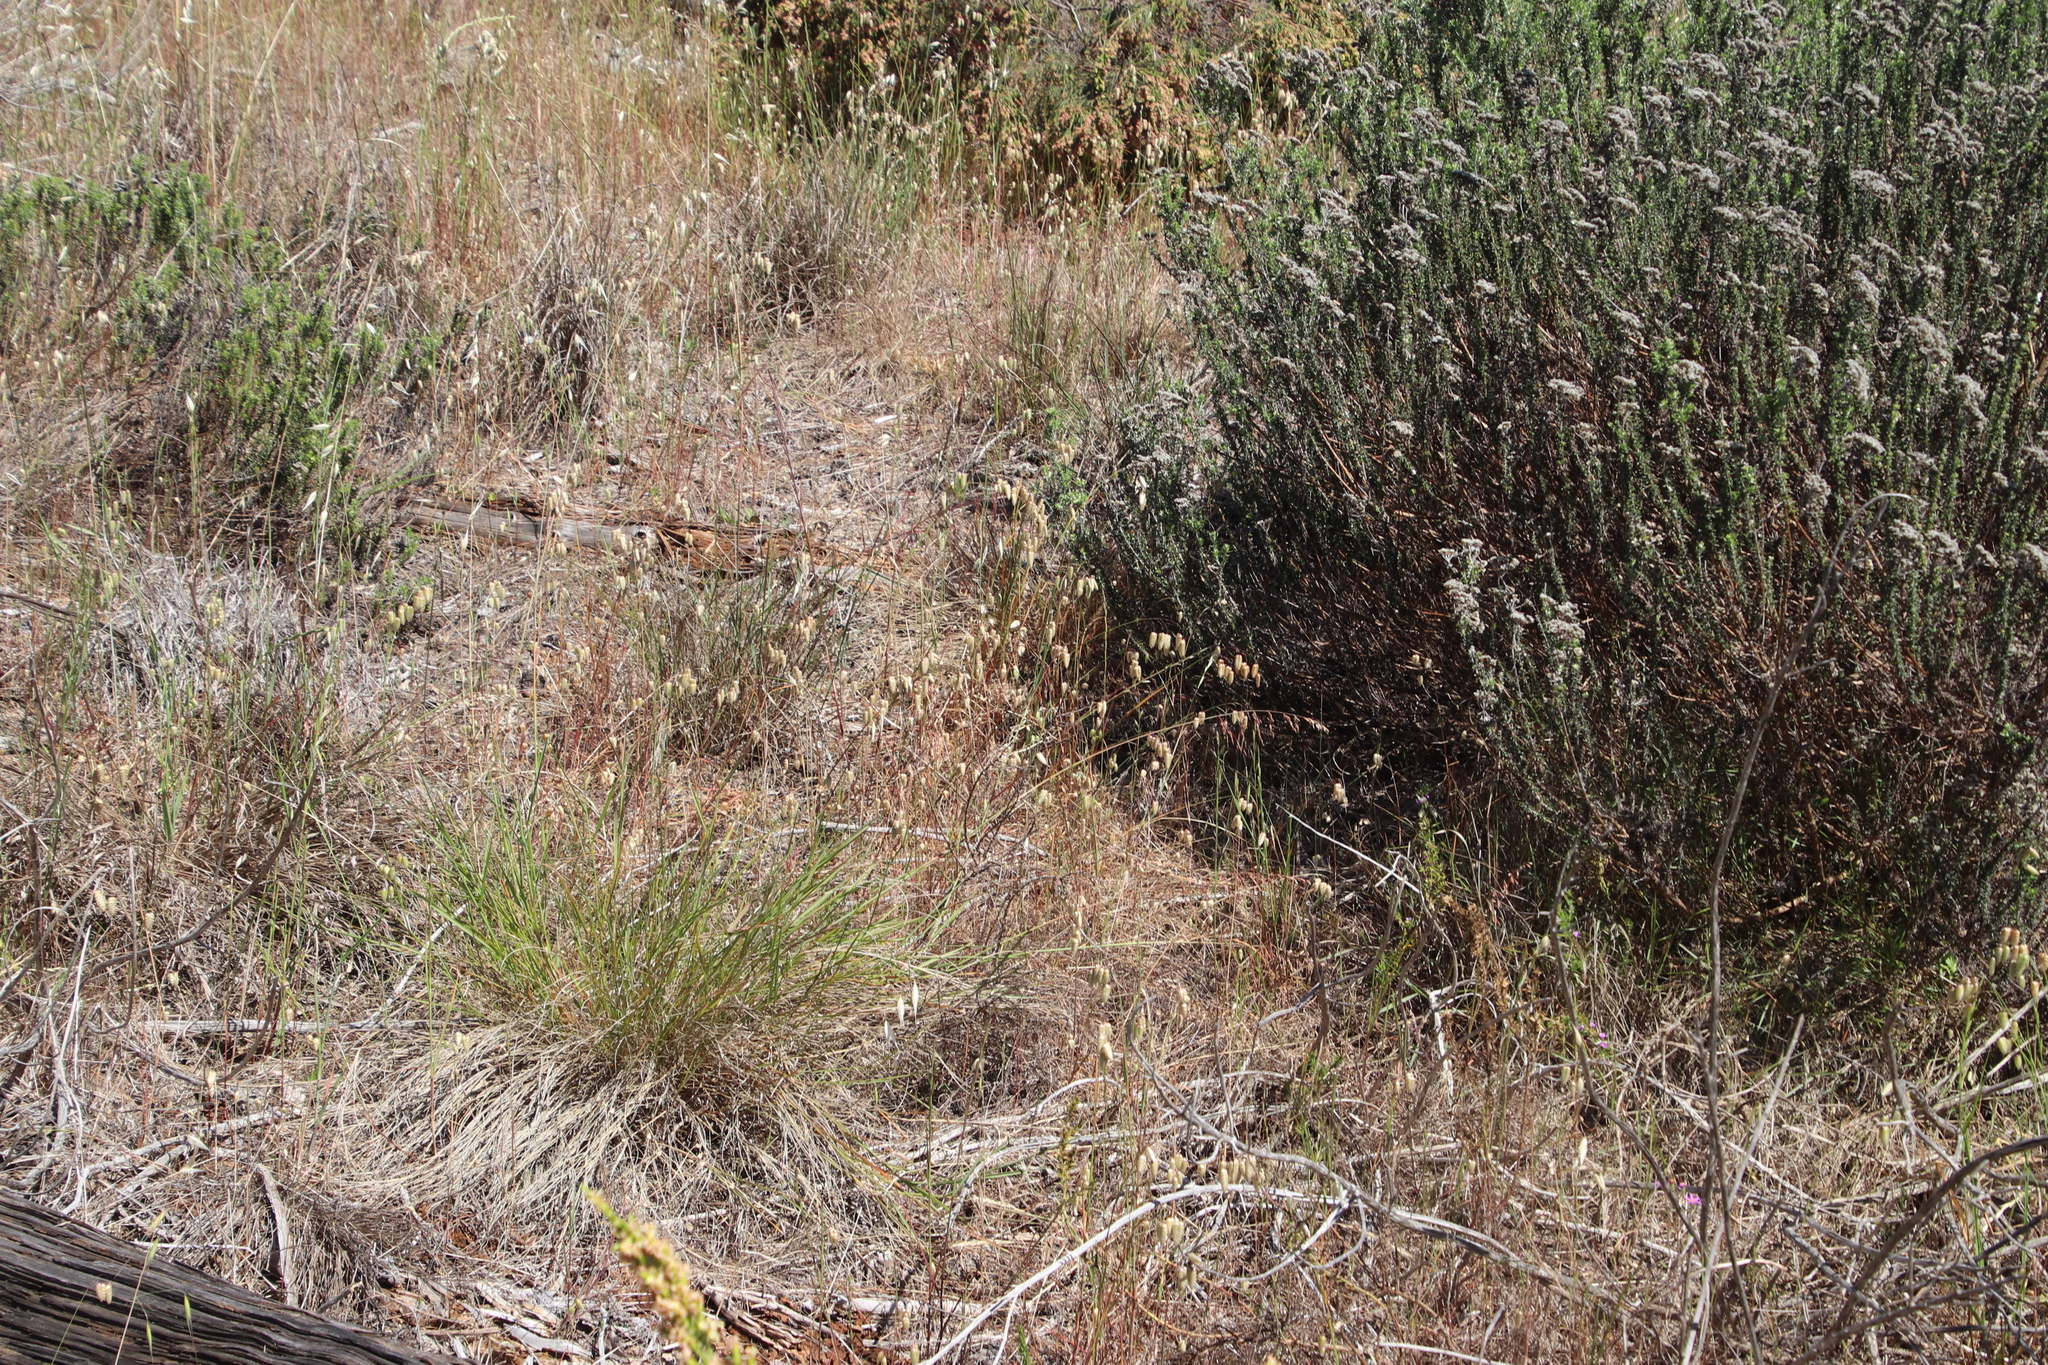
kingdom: Plantae
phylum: Tracheophyta
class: Liliopsida
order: Poales
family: Poaceae
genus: Briza
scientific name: Briza maxima
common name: Big quakinggrass
